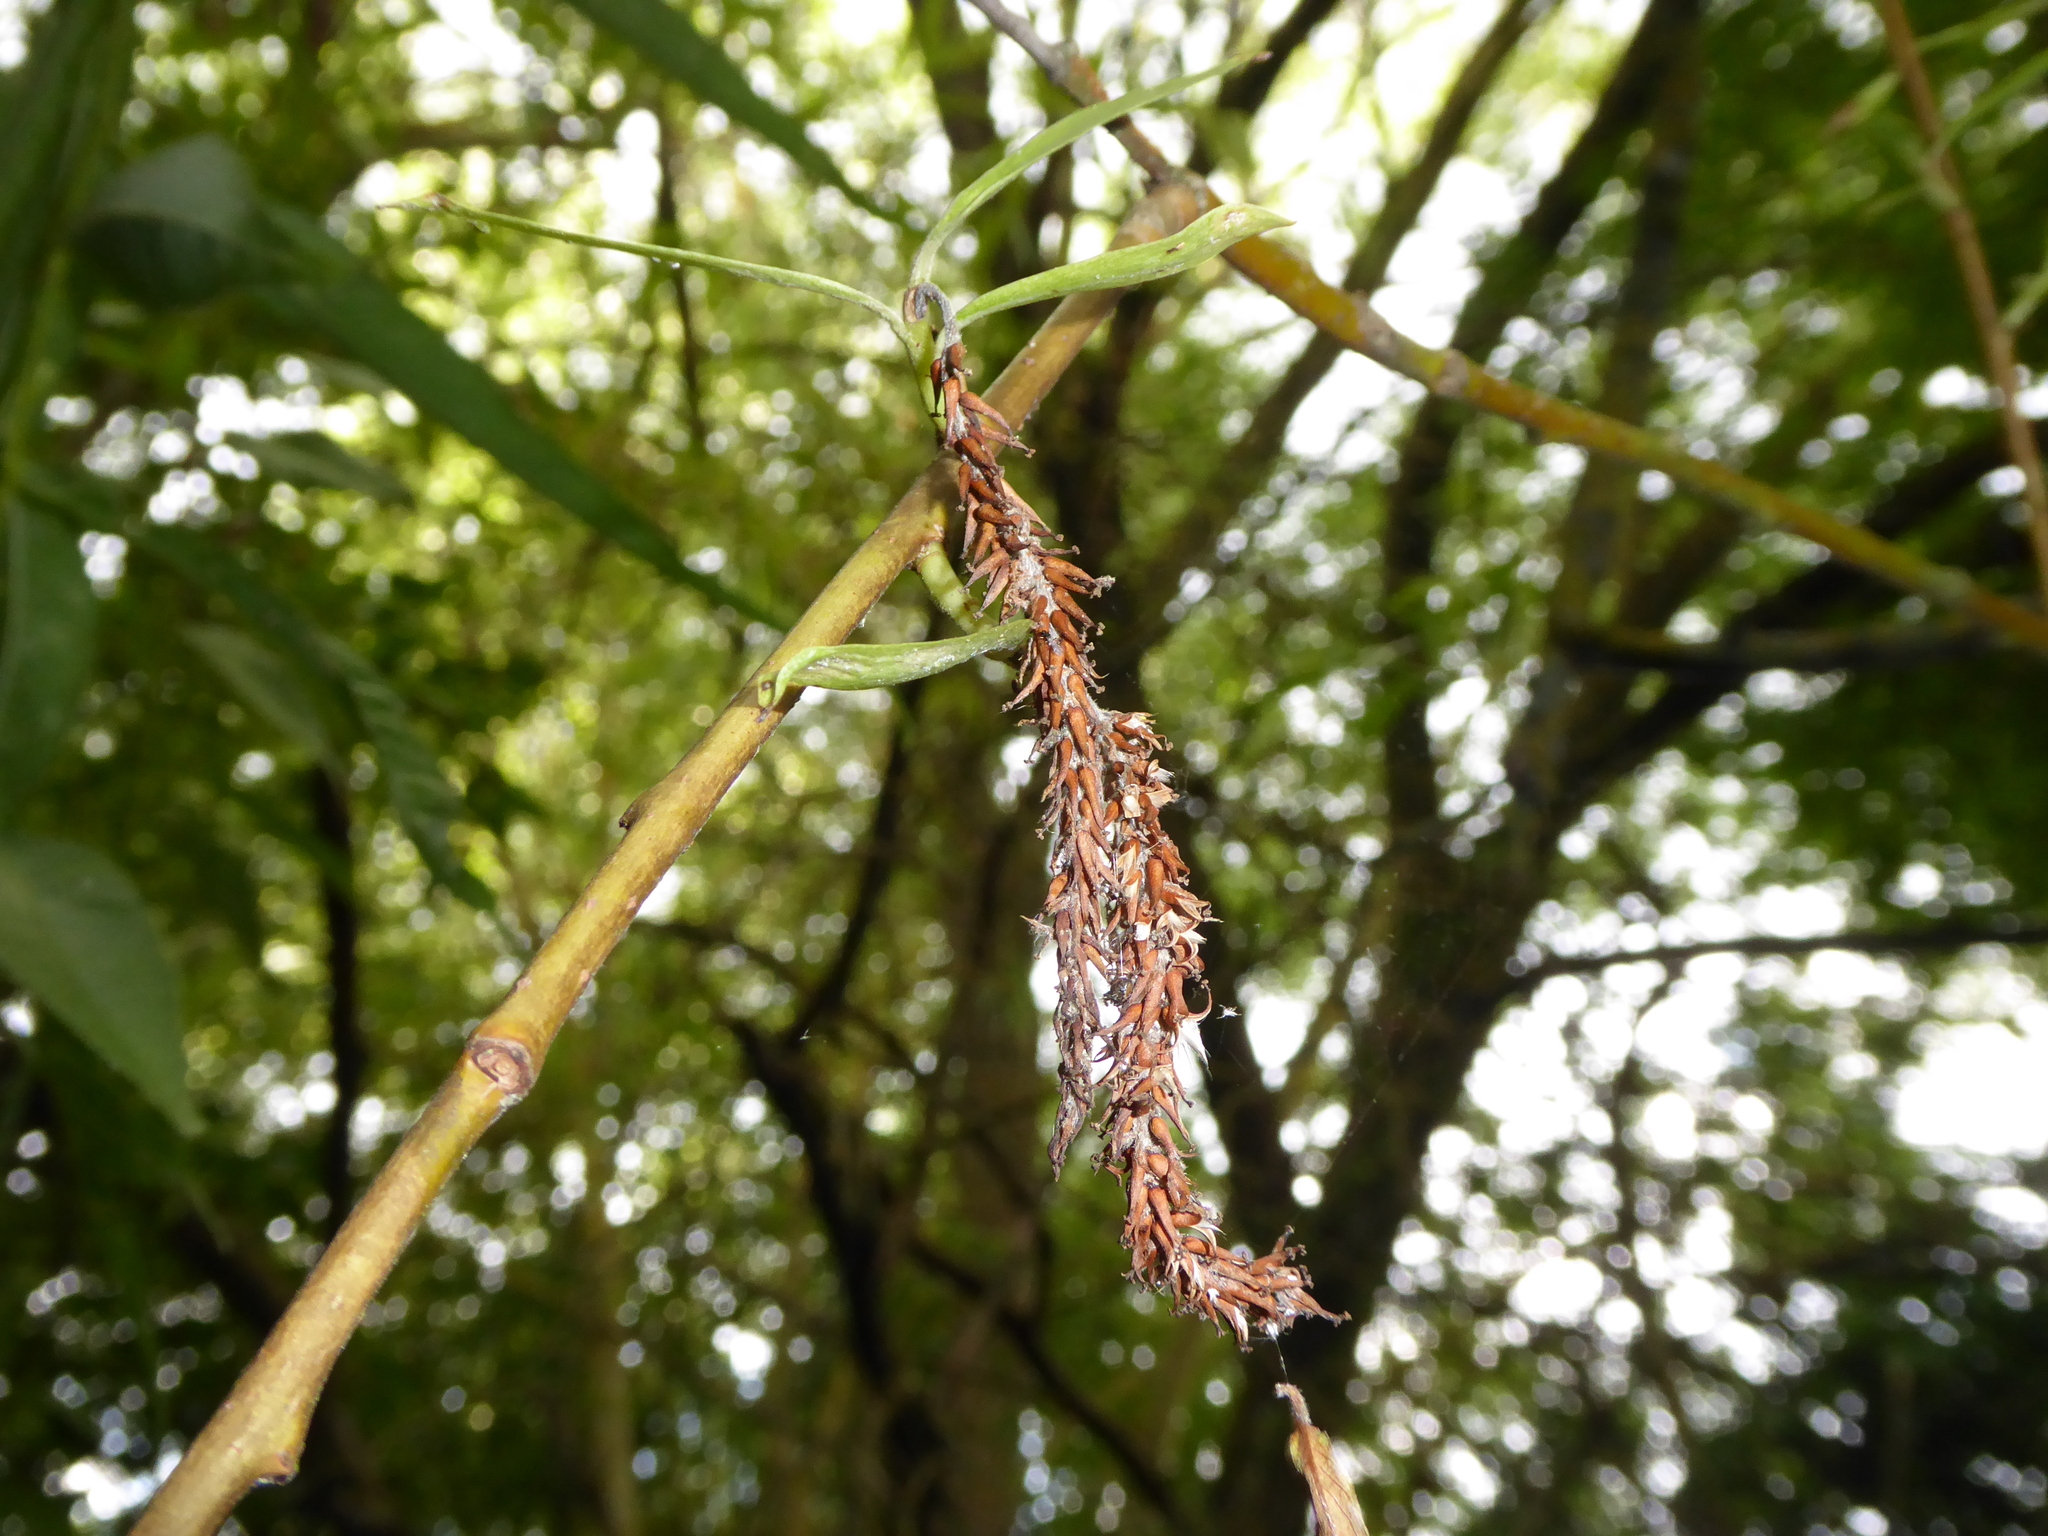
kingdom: Plantae
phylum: Tracheophyta
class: Magnoliopsida
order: Malpighiales
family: Salicaceae
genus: Salix
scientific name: Salix fragilis
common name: Crack willow
